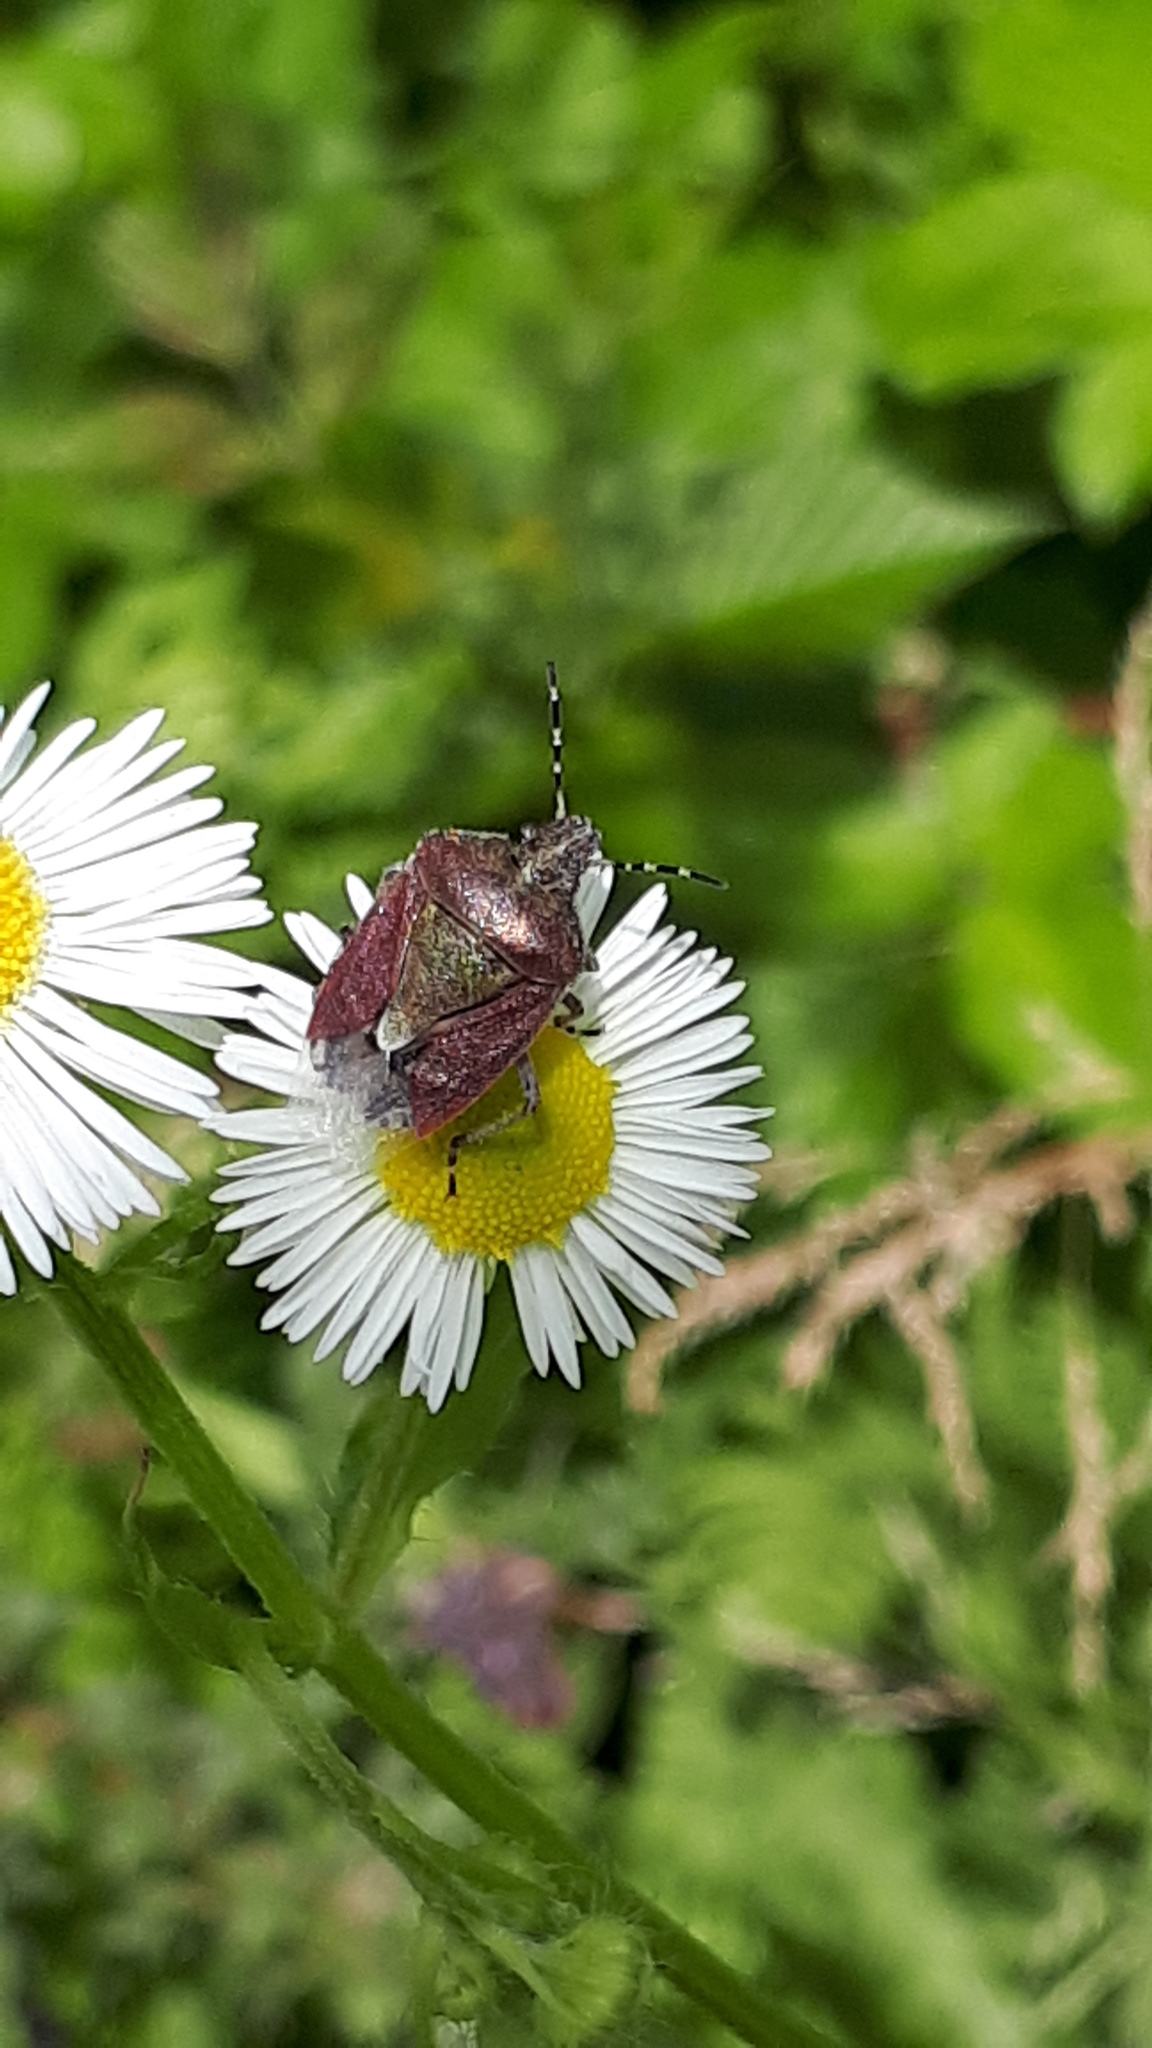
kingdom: Animalia
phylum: Arthropoda
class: Insecta
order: Hemiptera
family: Pentatomidae
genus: Dolycoris
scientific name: Dolycoris baccarum
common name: Sloe bug
